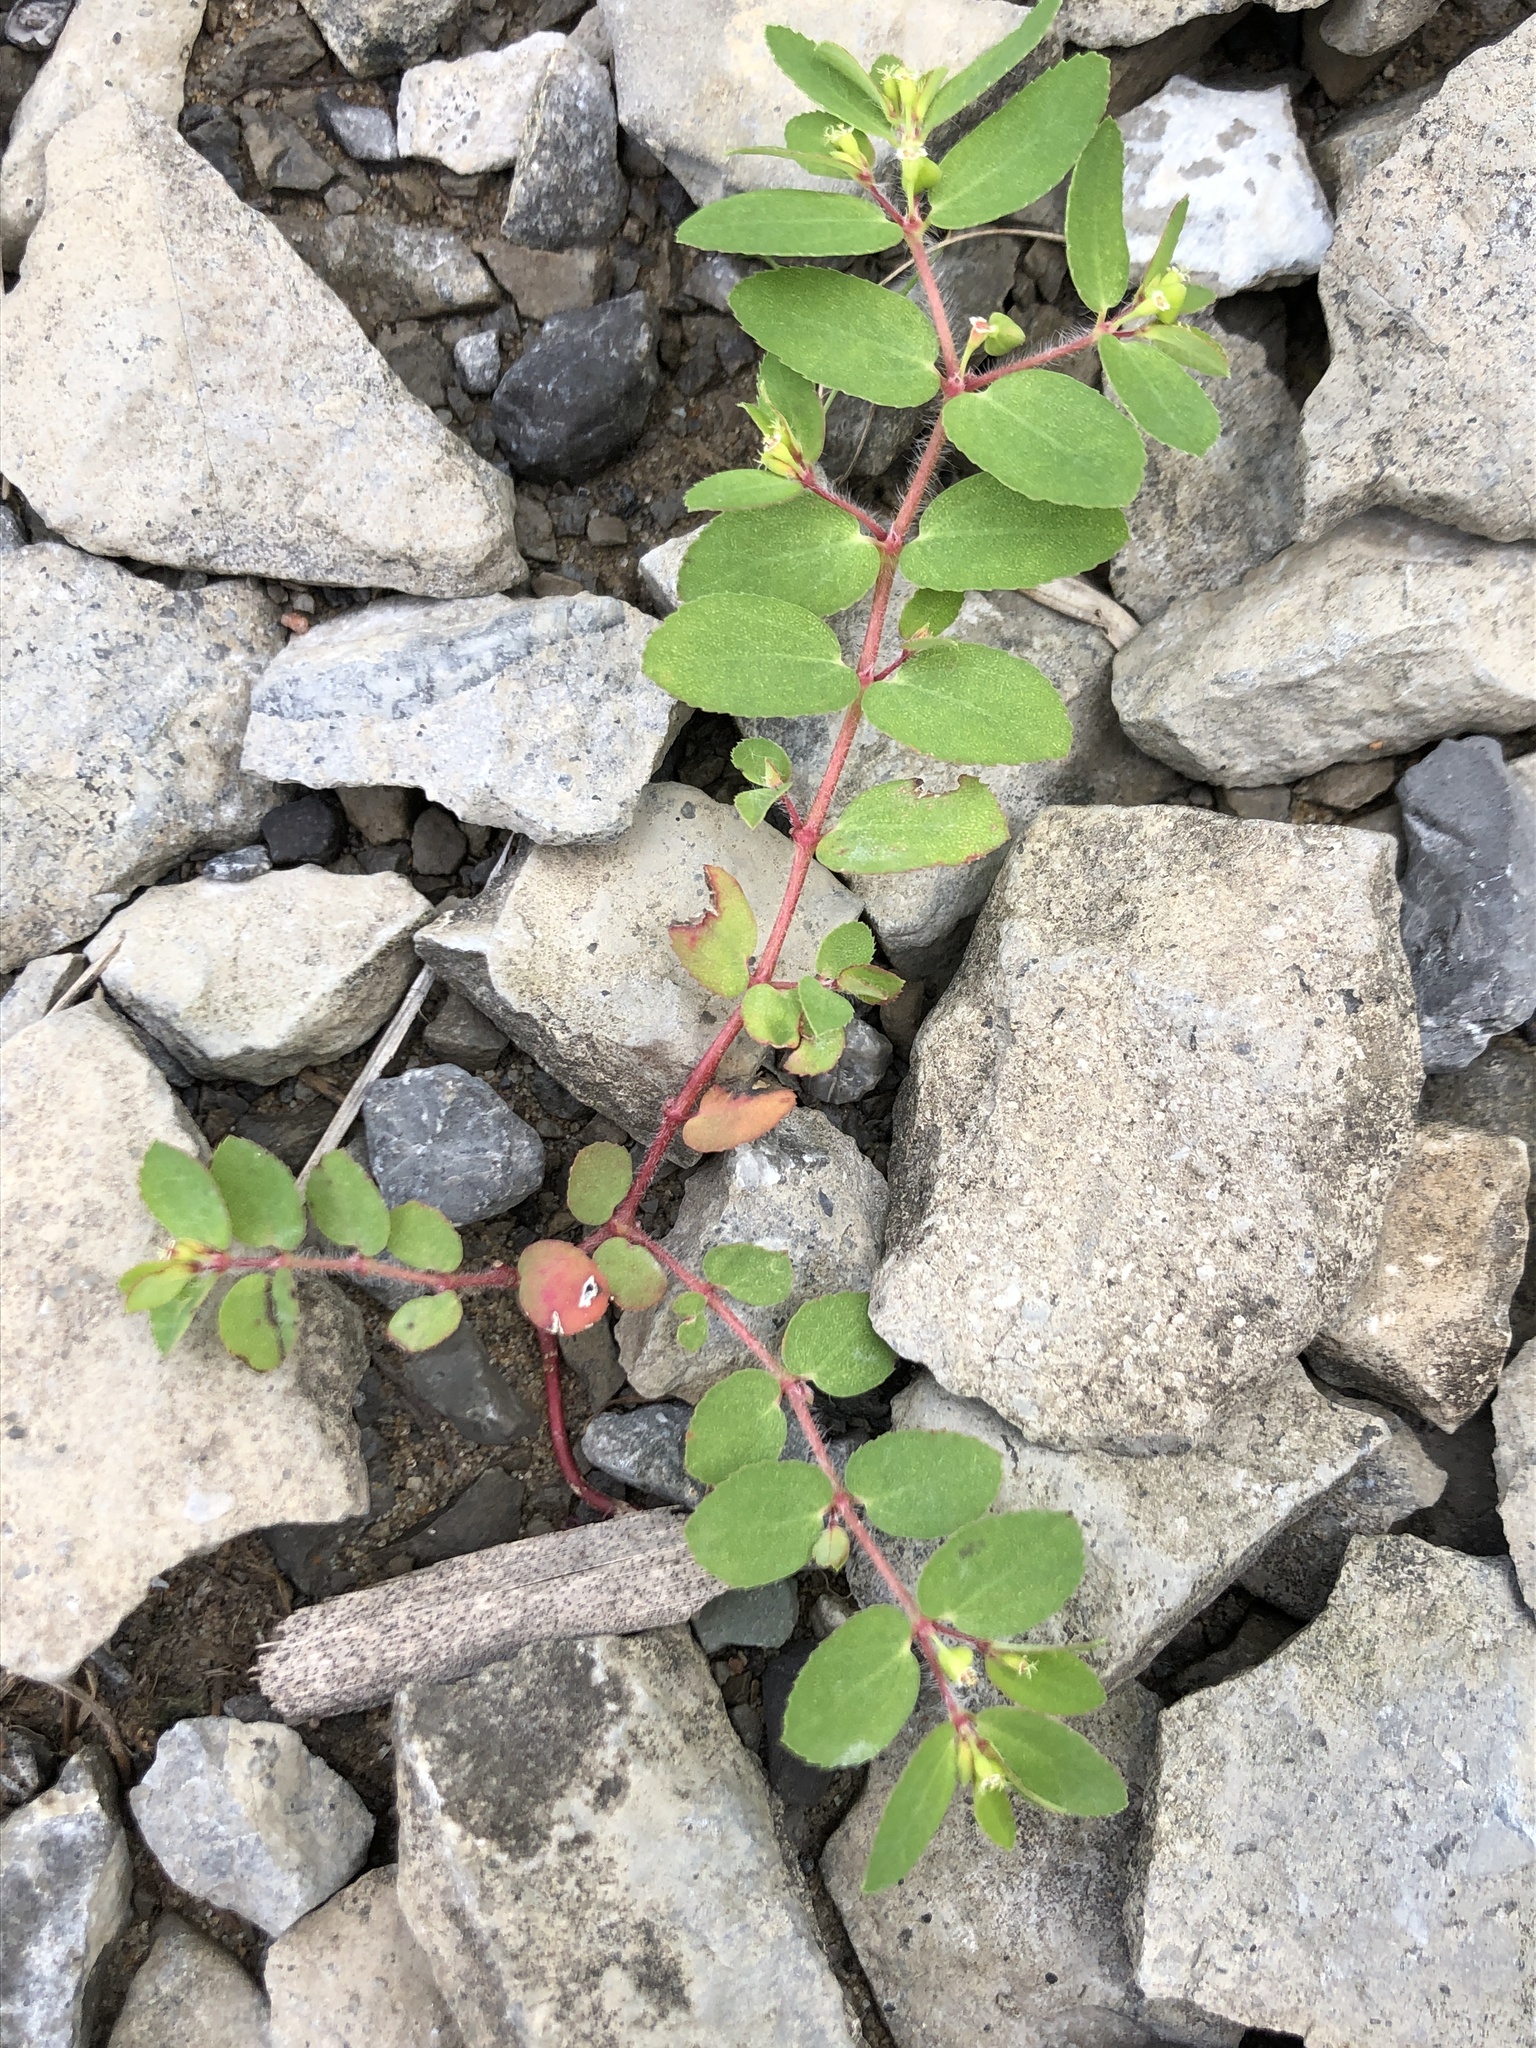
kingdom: Plantae
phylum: Tracheophyta
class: Magnoliopsida
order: Malpighiales
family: Euphorbiaceae
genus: Euphorbia
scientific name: Euphorbia vermiculata
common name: Hairy spurge
